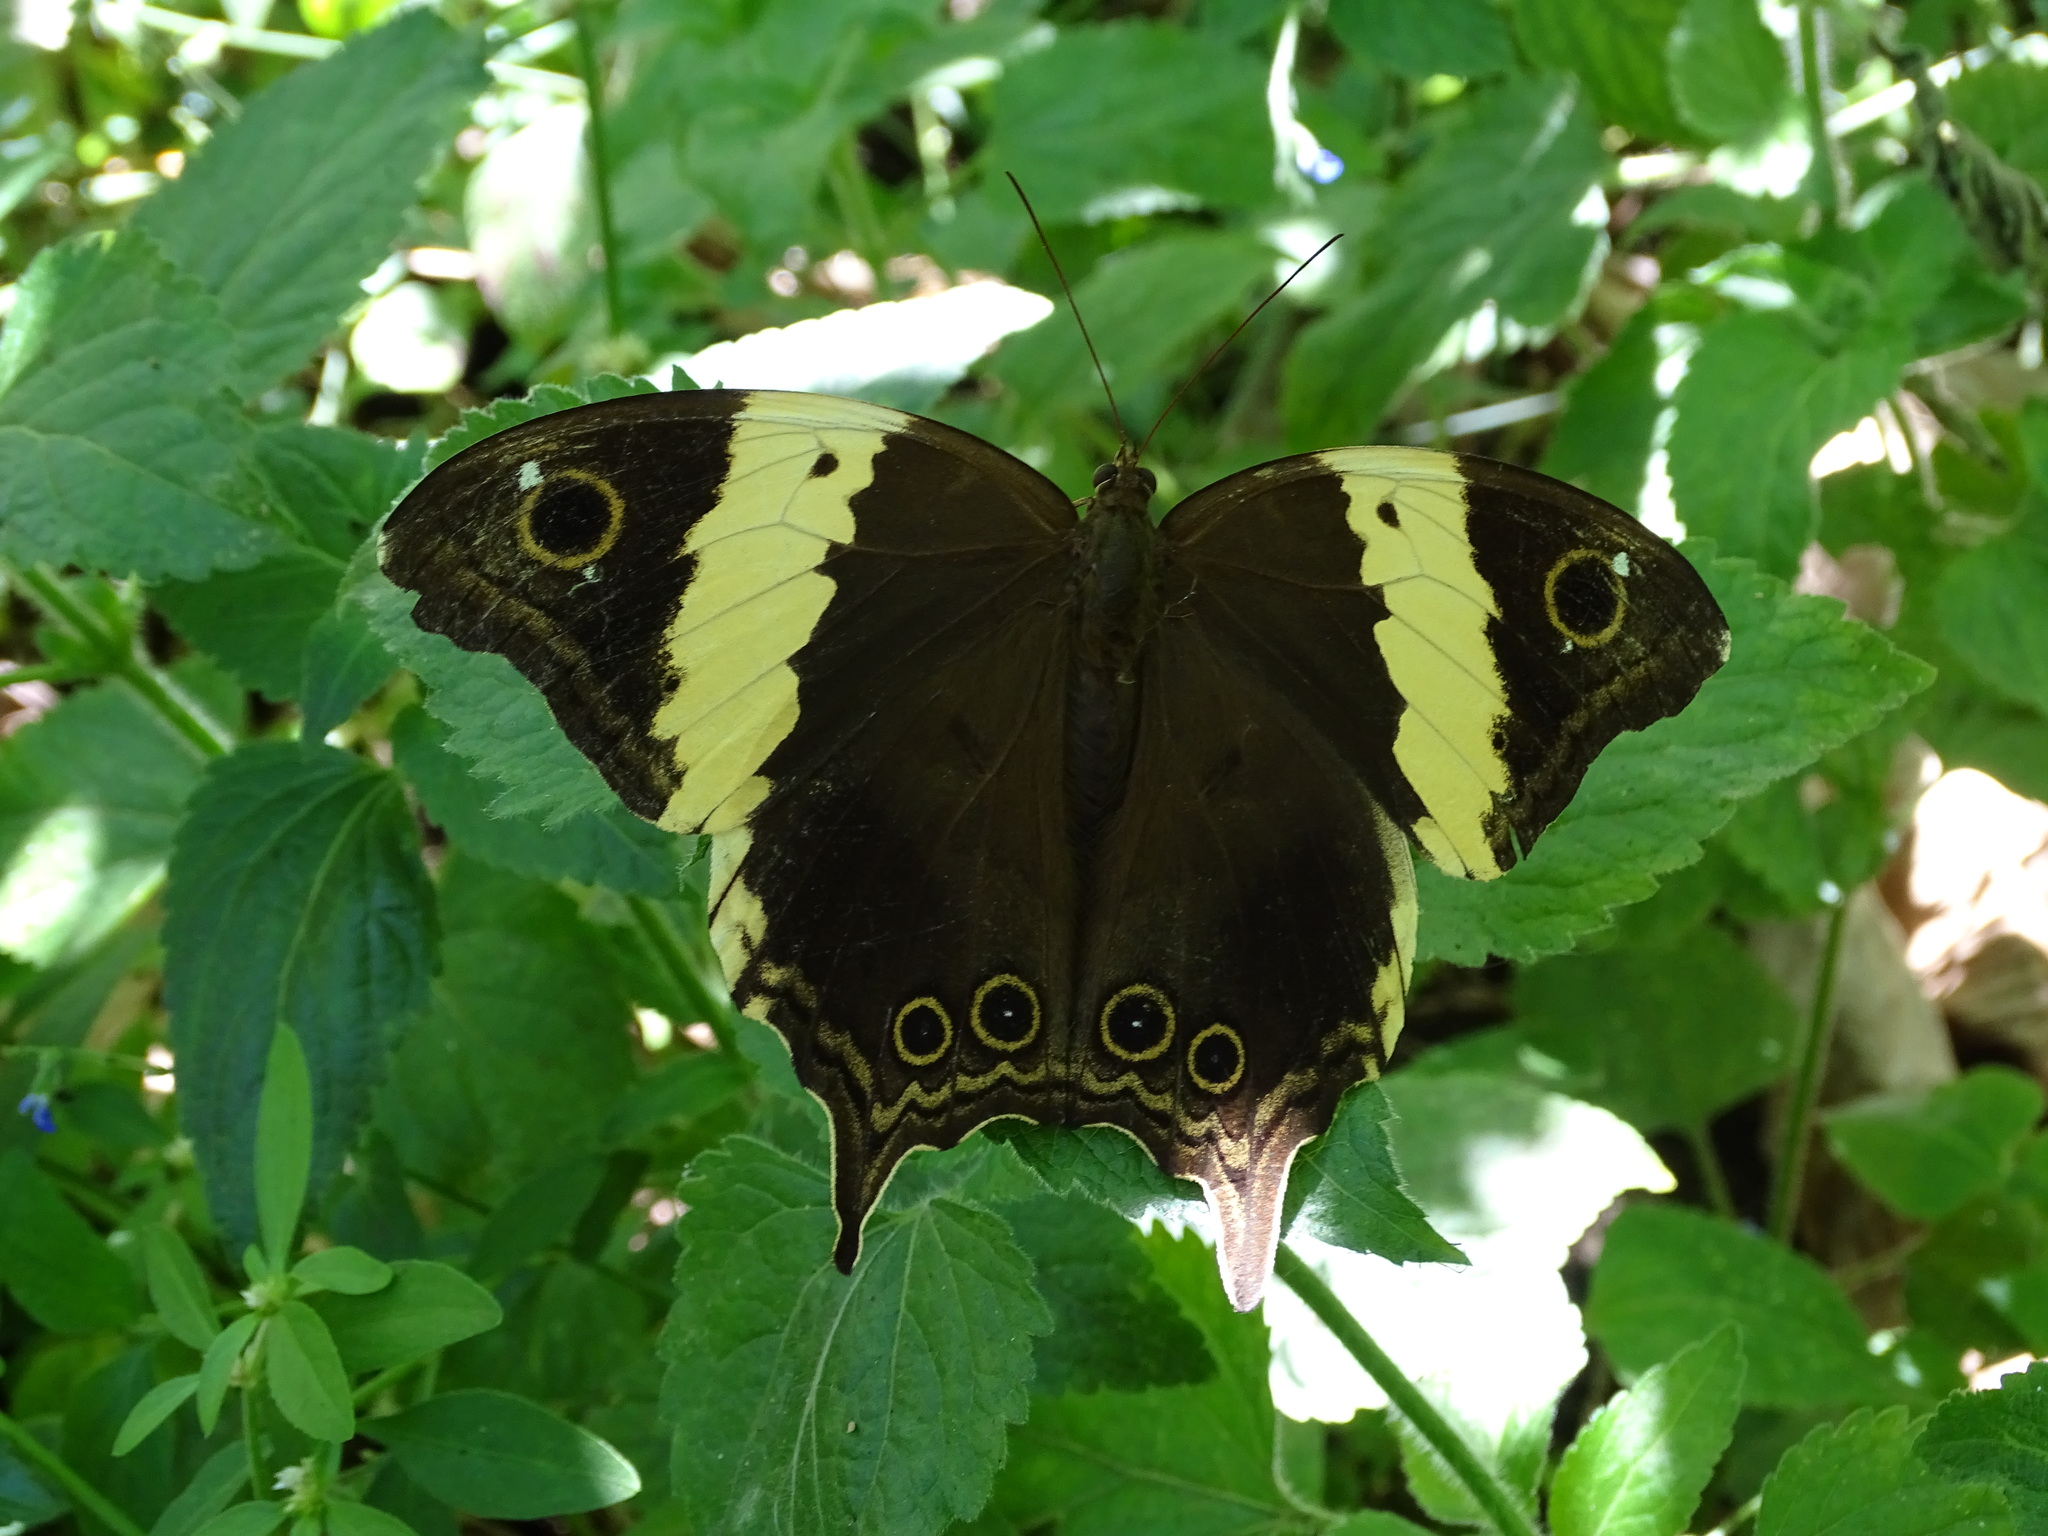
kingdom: Animalia
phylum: Arthropoda
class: Insecta
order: Lepidoptera
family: Nymphalidae
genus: Neorina
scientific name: Neorina crishna
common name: Tailed yellow owl
